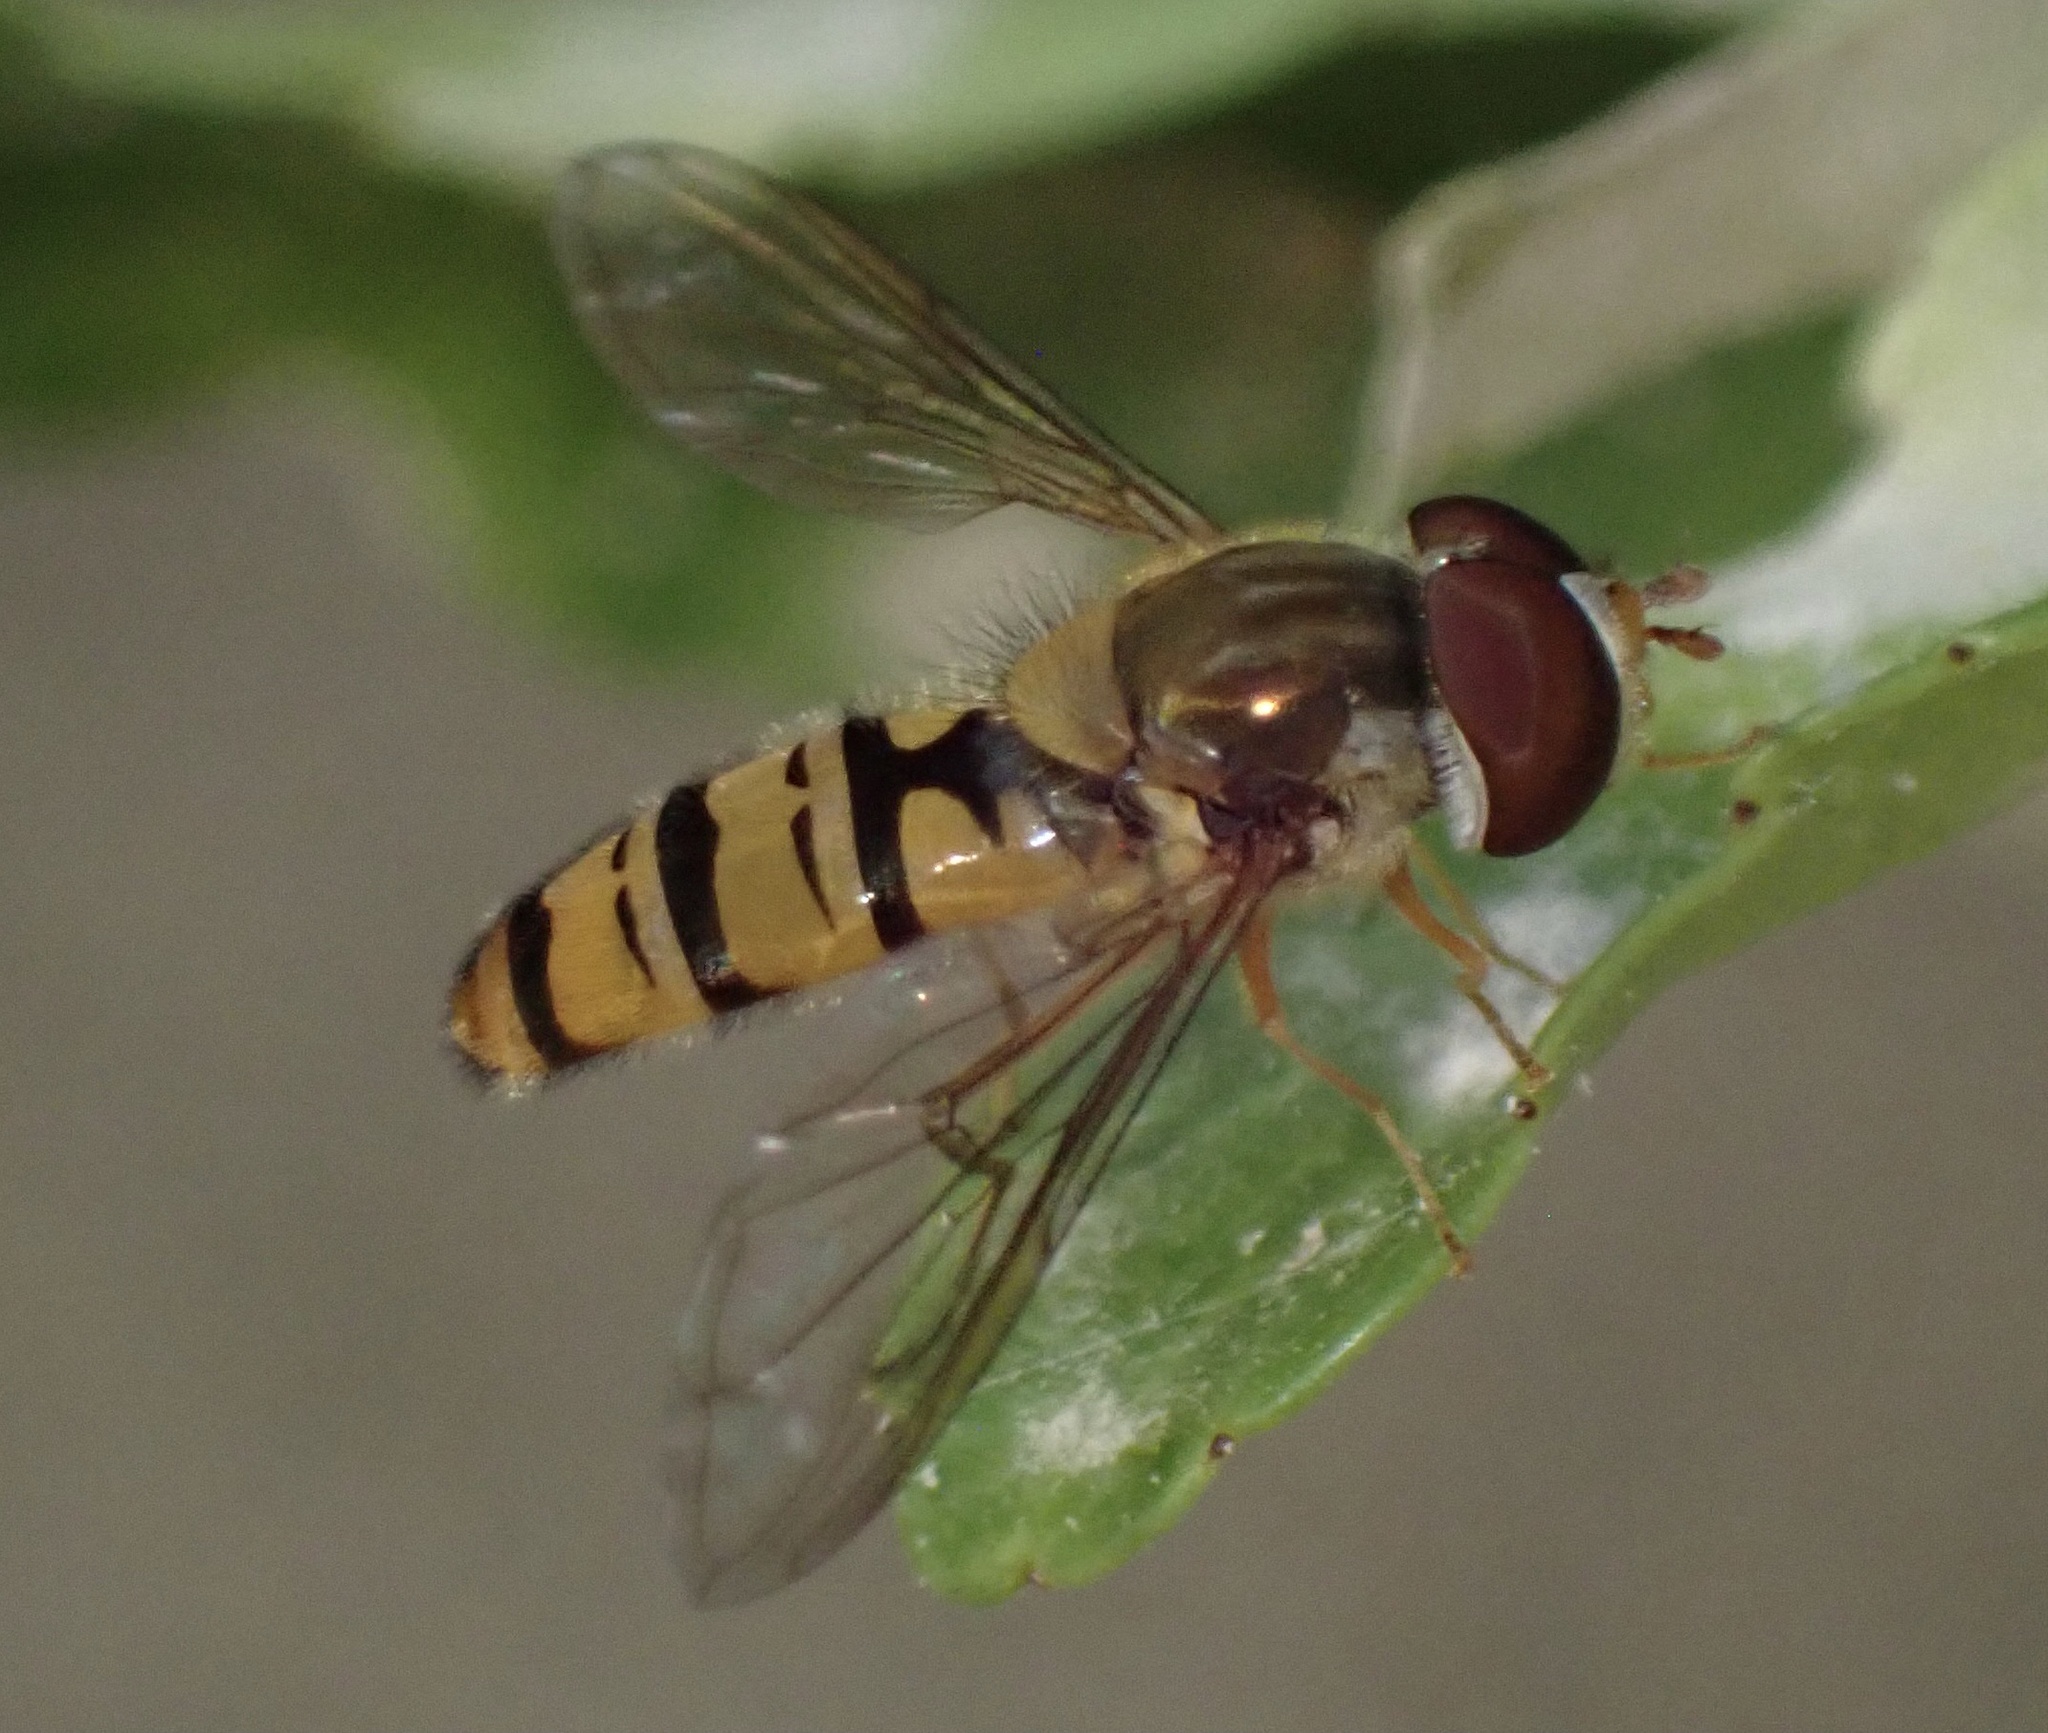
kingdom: Animalia
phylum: Arthropoda
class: Insecta
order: Diptera
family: Syrphidae
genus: Episyrphus
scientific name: Episyrphus balteatus
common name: Marmalade hoverfly
